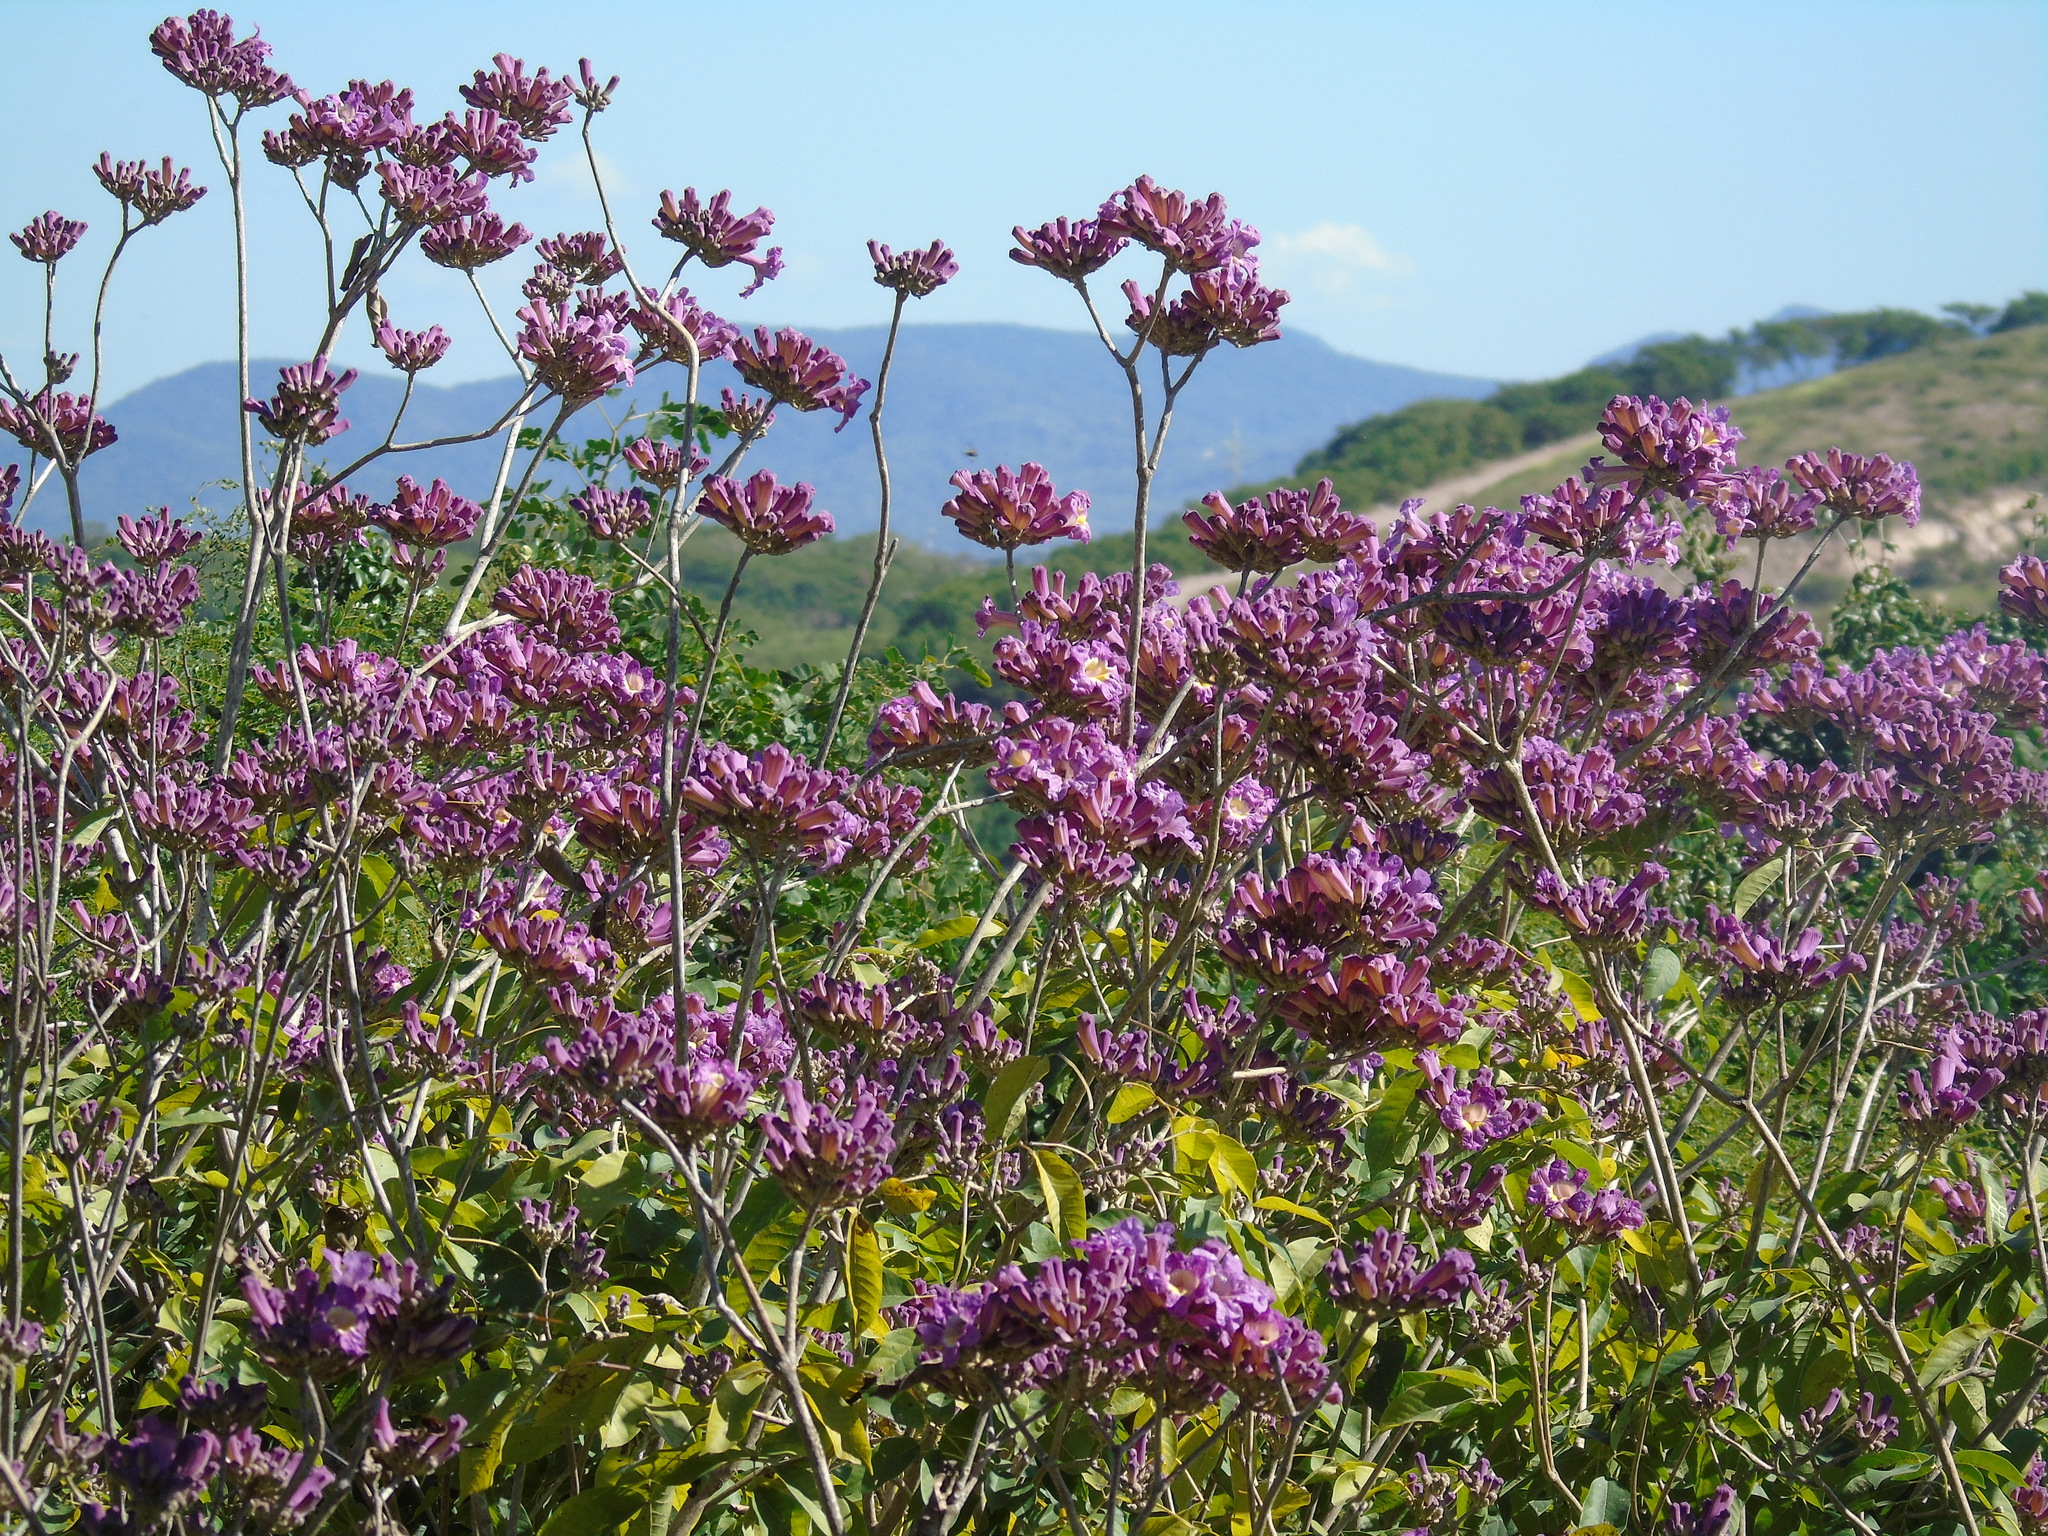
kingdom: Plantae
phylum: Tracheophyta
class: Magnoliopsida
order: Lamiales
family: Bignoniaceae
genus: Handroanthus
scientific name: Handroanthus impetiginosum
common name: Pink trumpet tree
